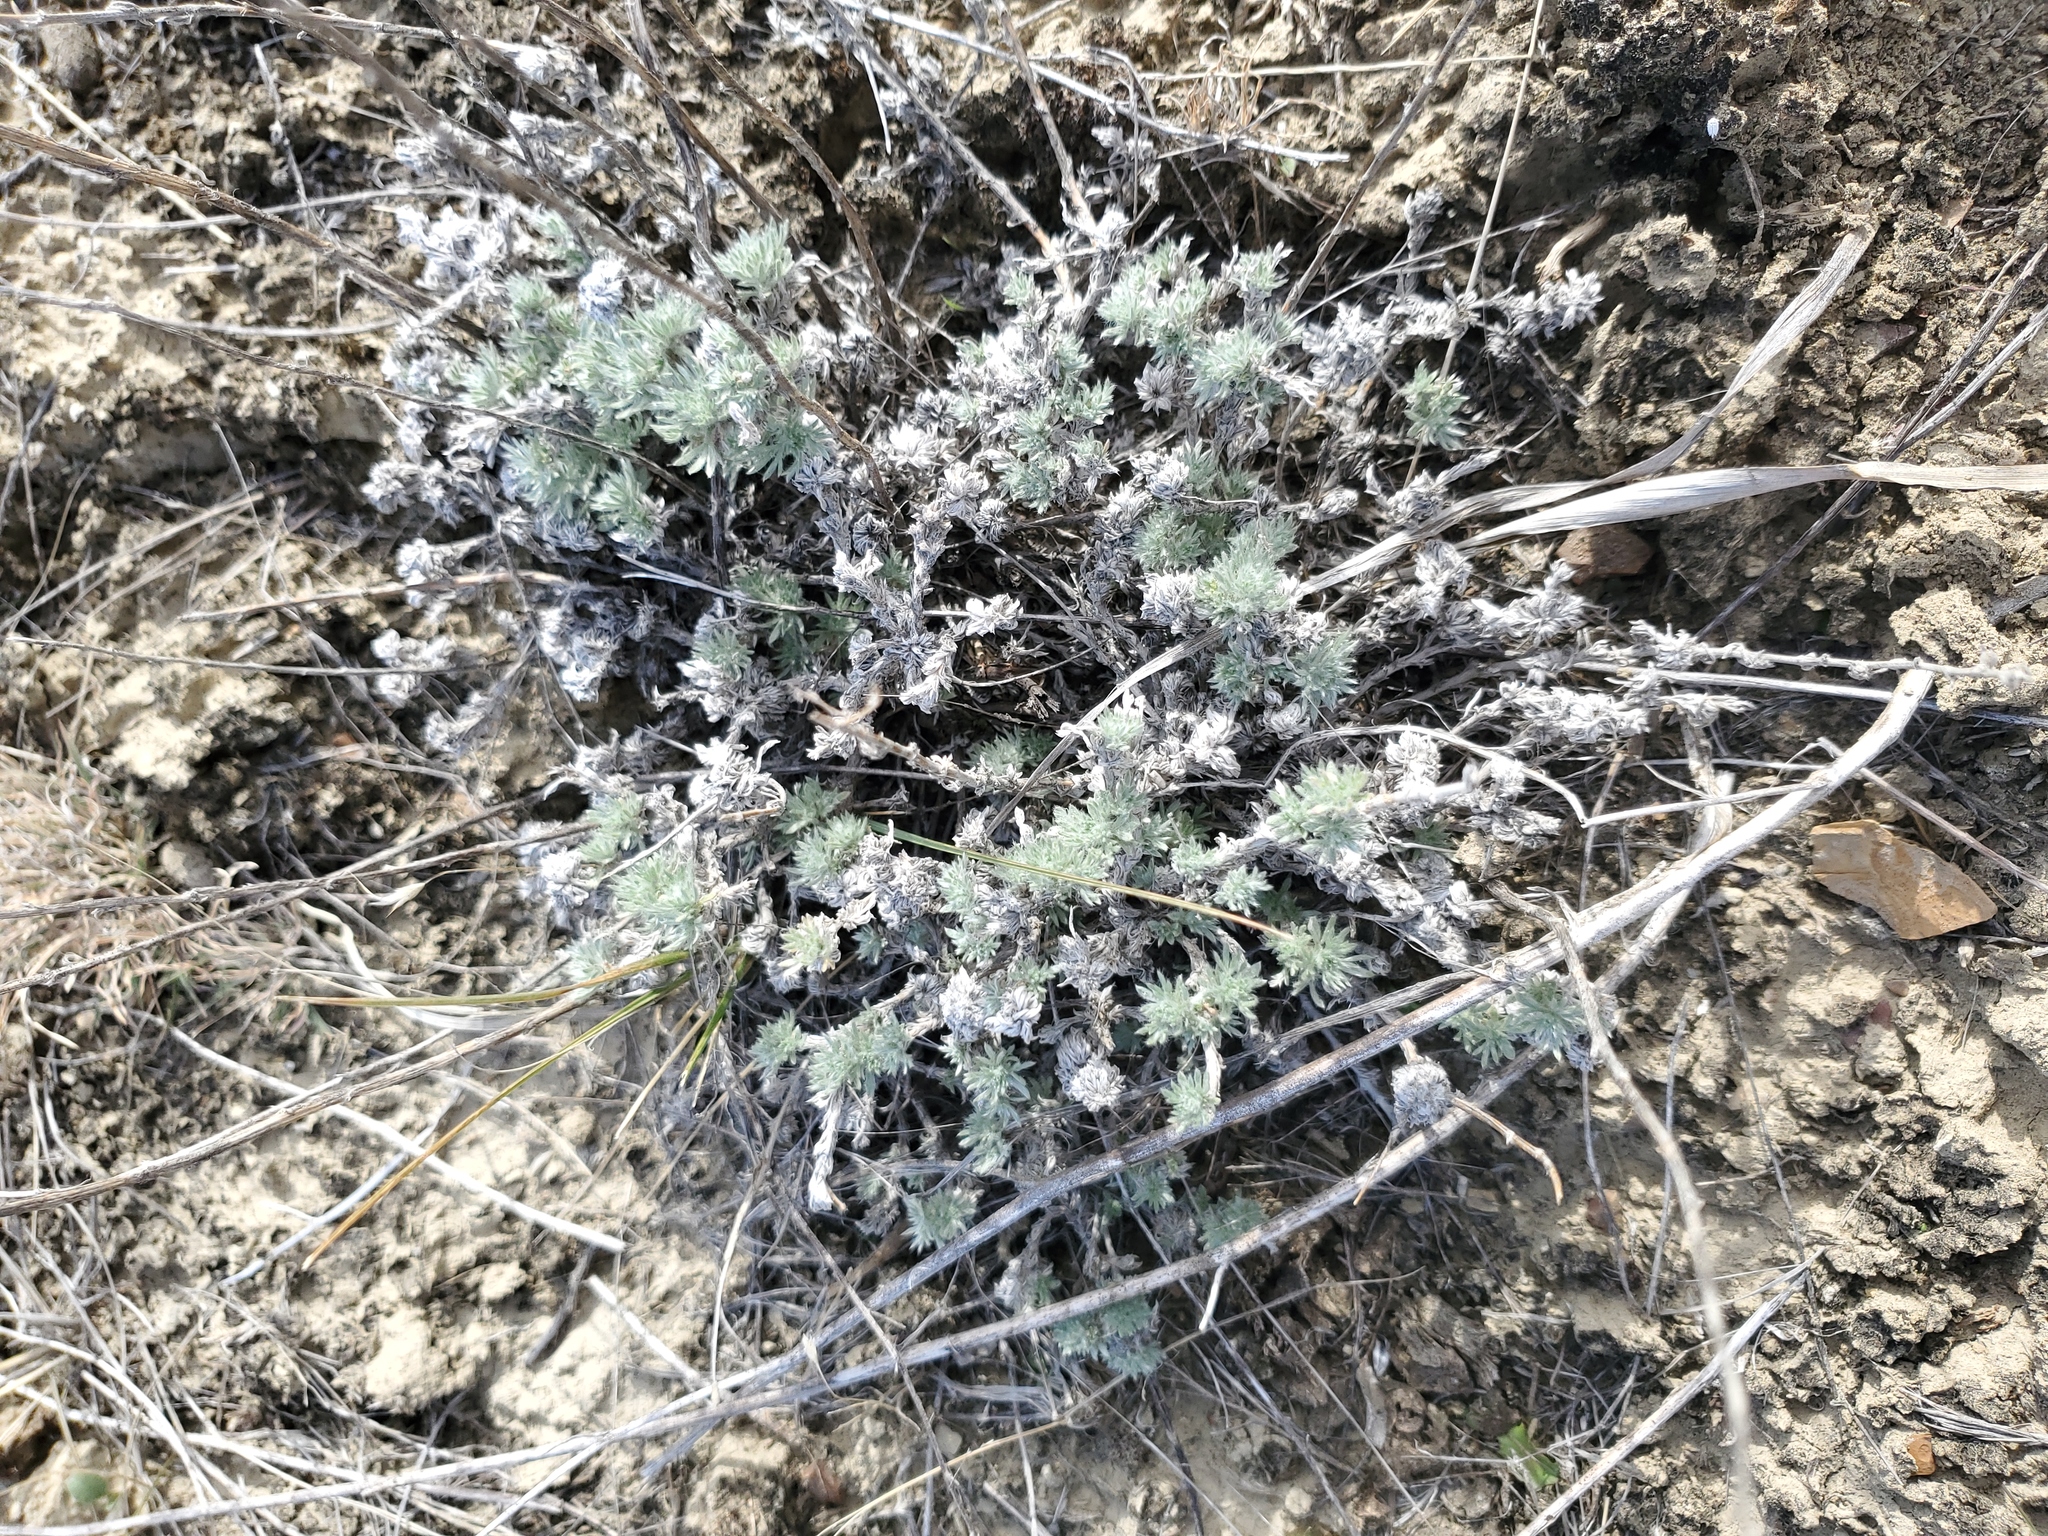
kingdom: Plantae
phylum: Tracheophyta
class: Magnoliopsida
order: Asterales
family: Asteraceae
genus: Artemisia
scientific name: Artemisia frigida
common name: Prairie sagewort
